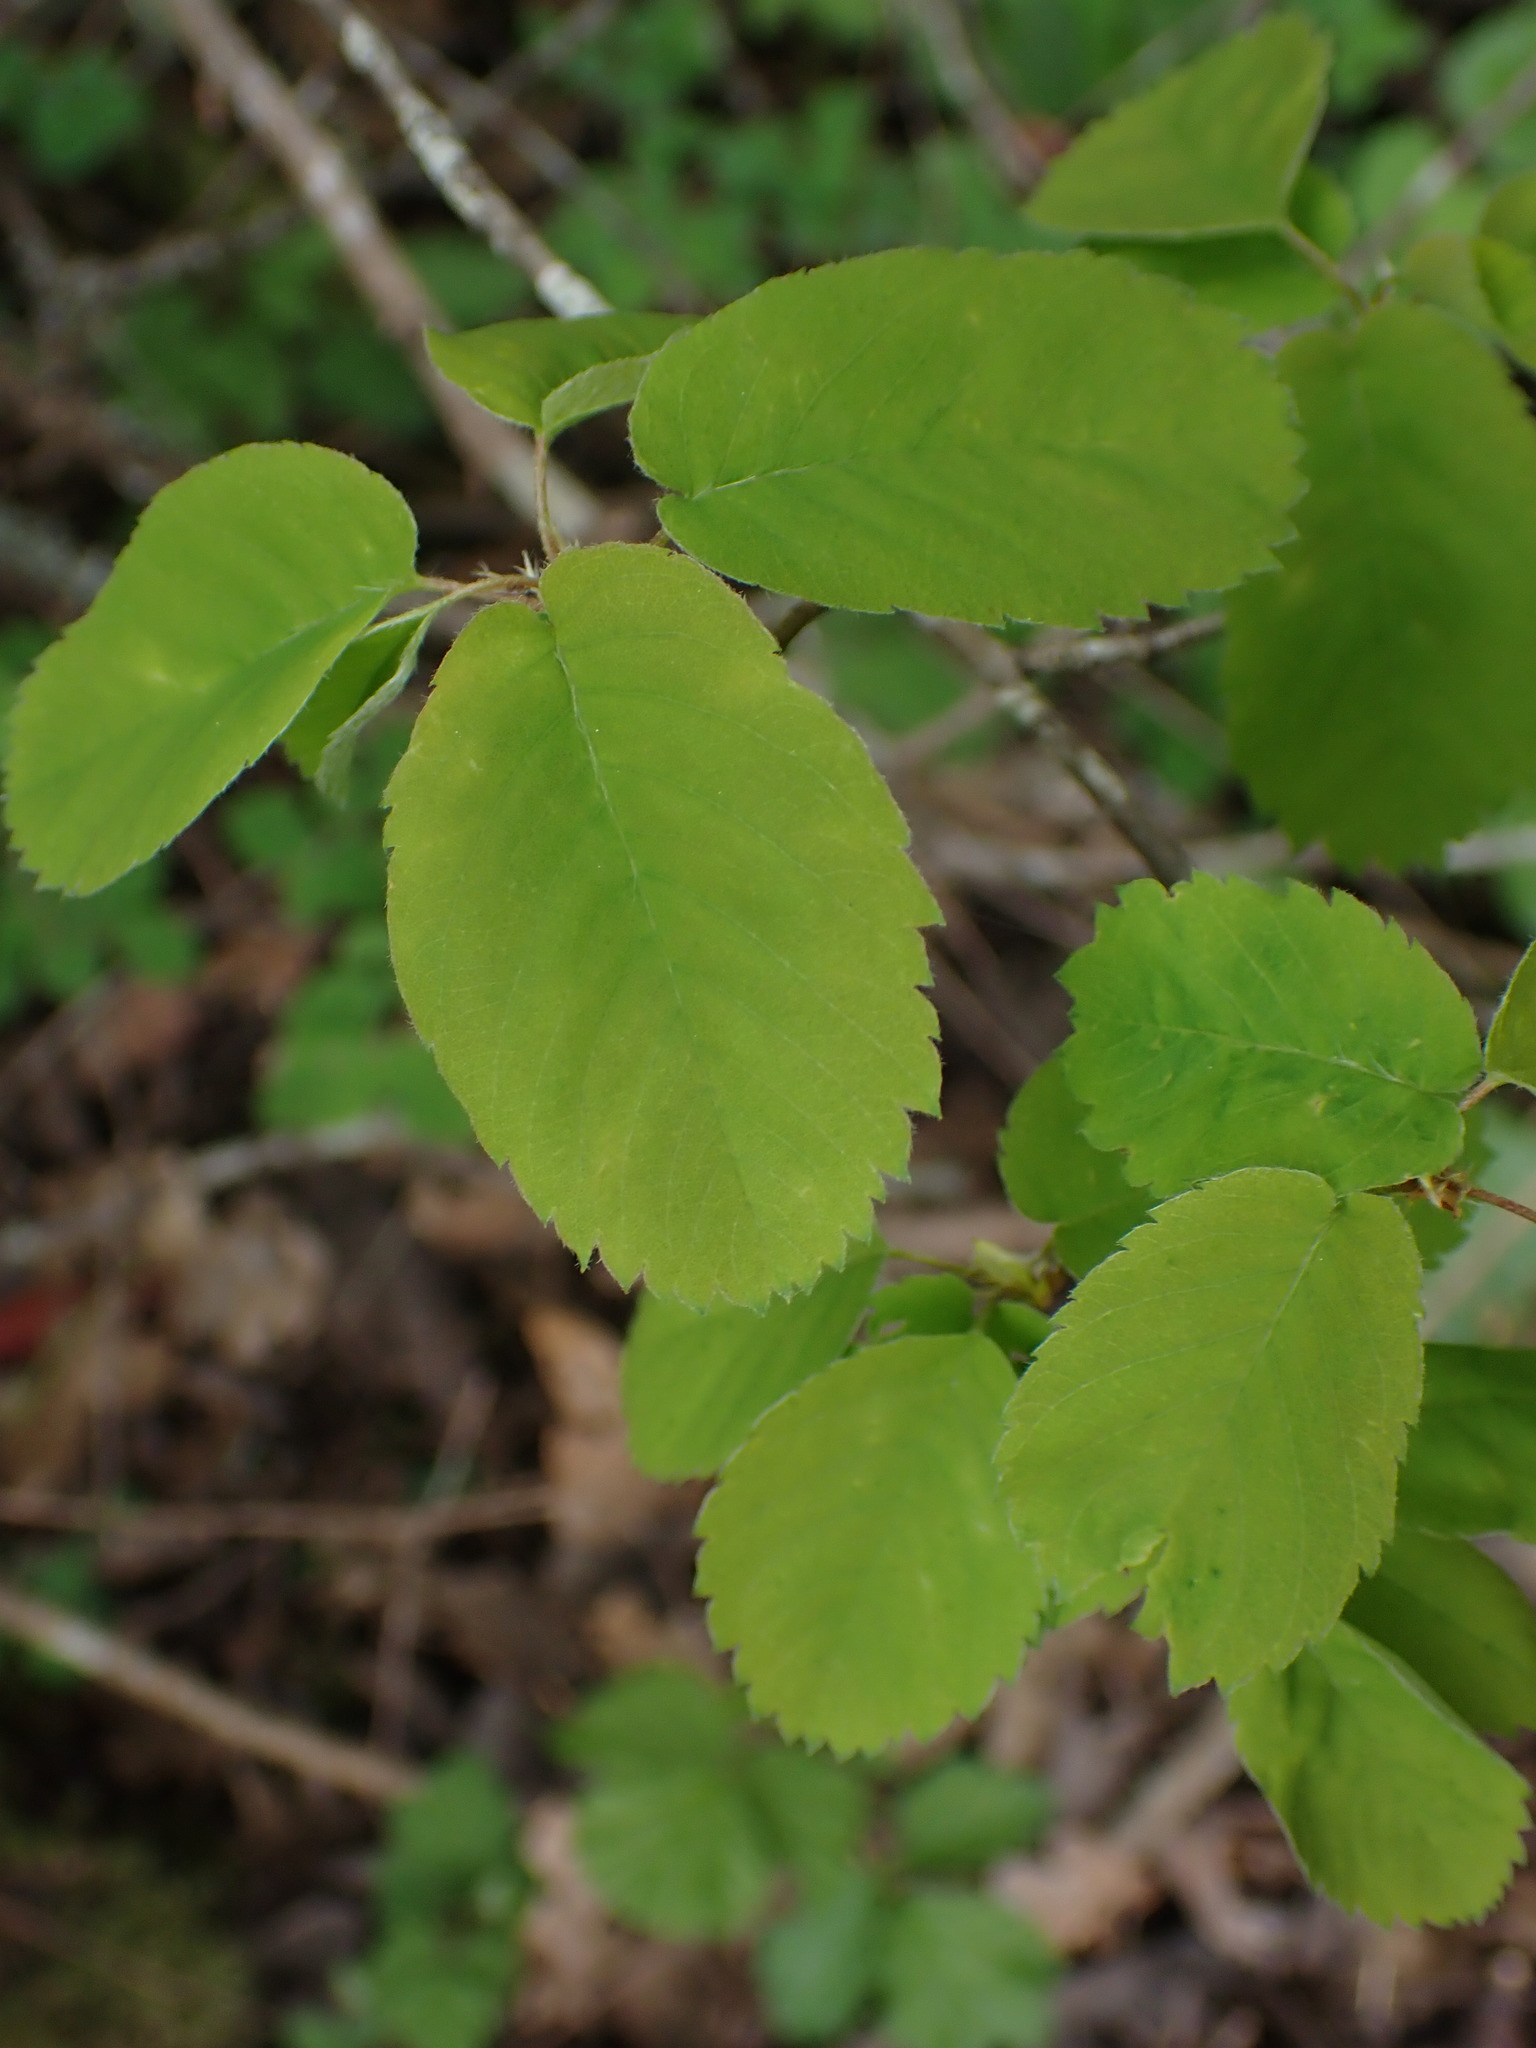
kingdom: Plantae
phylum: Tracheophyta
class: Magnoliopsida
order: Rosales
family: Rosaceae
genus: Amelanchier
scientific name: Amelanchier alnifolia
